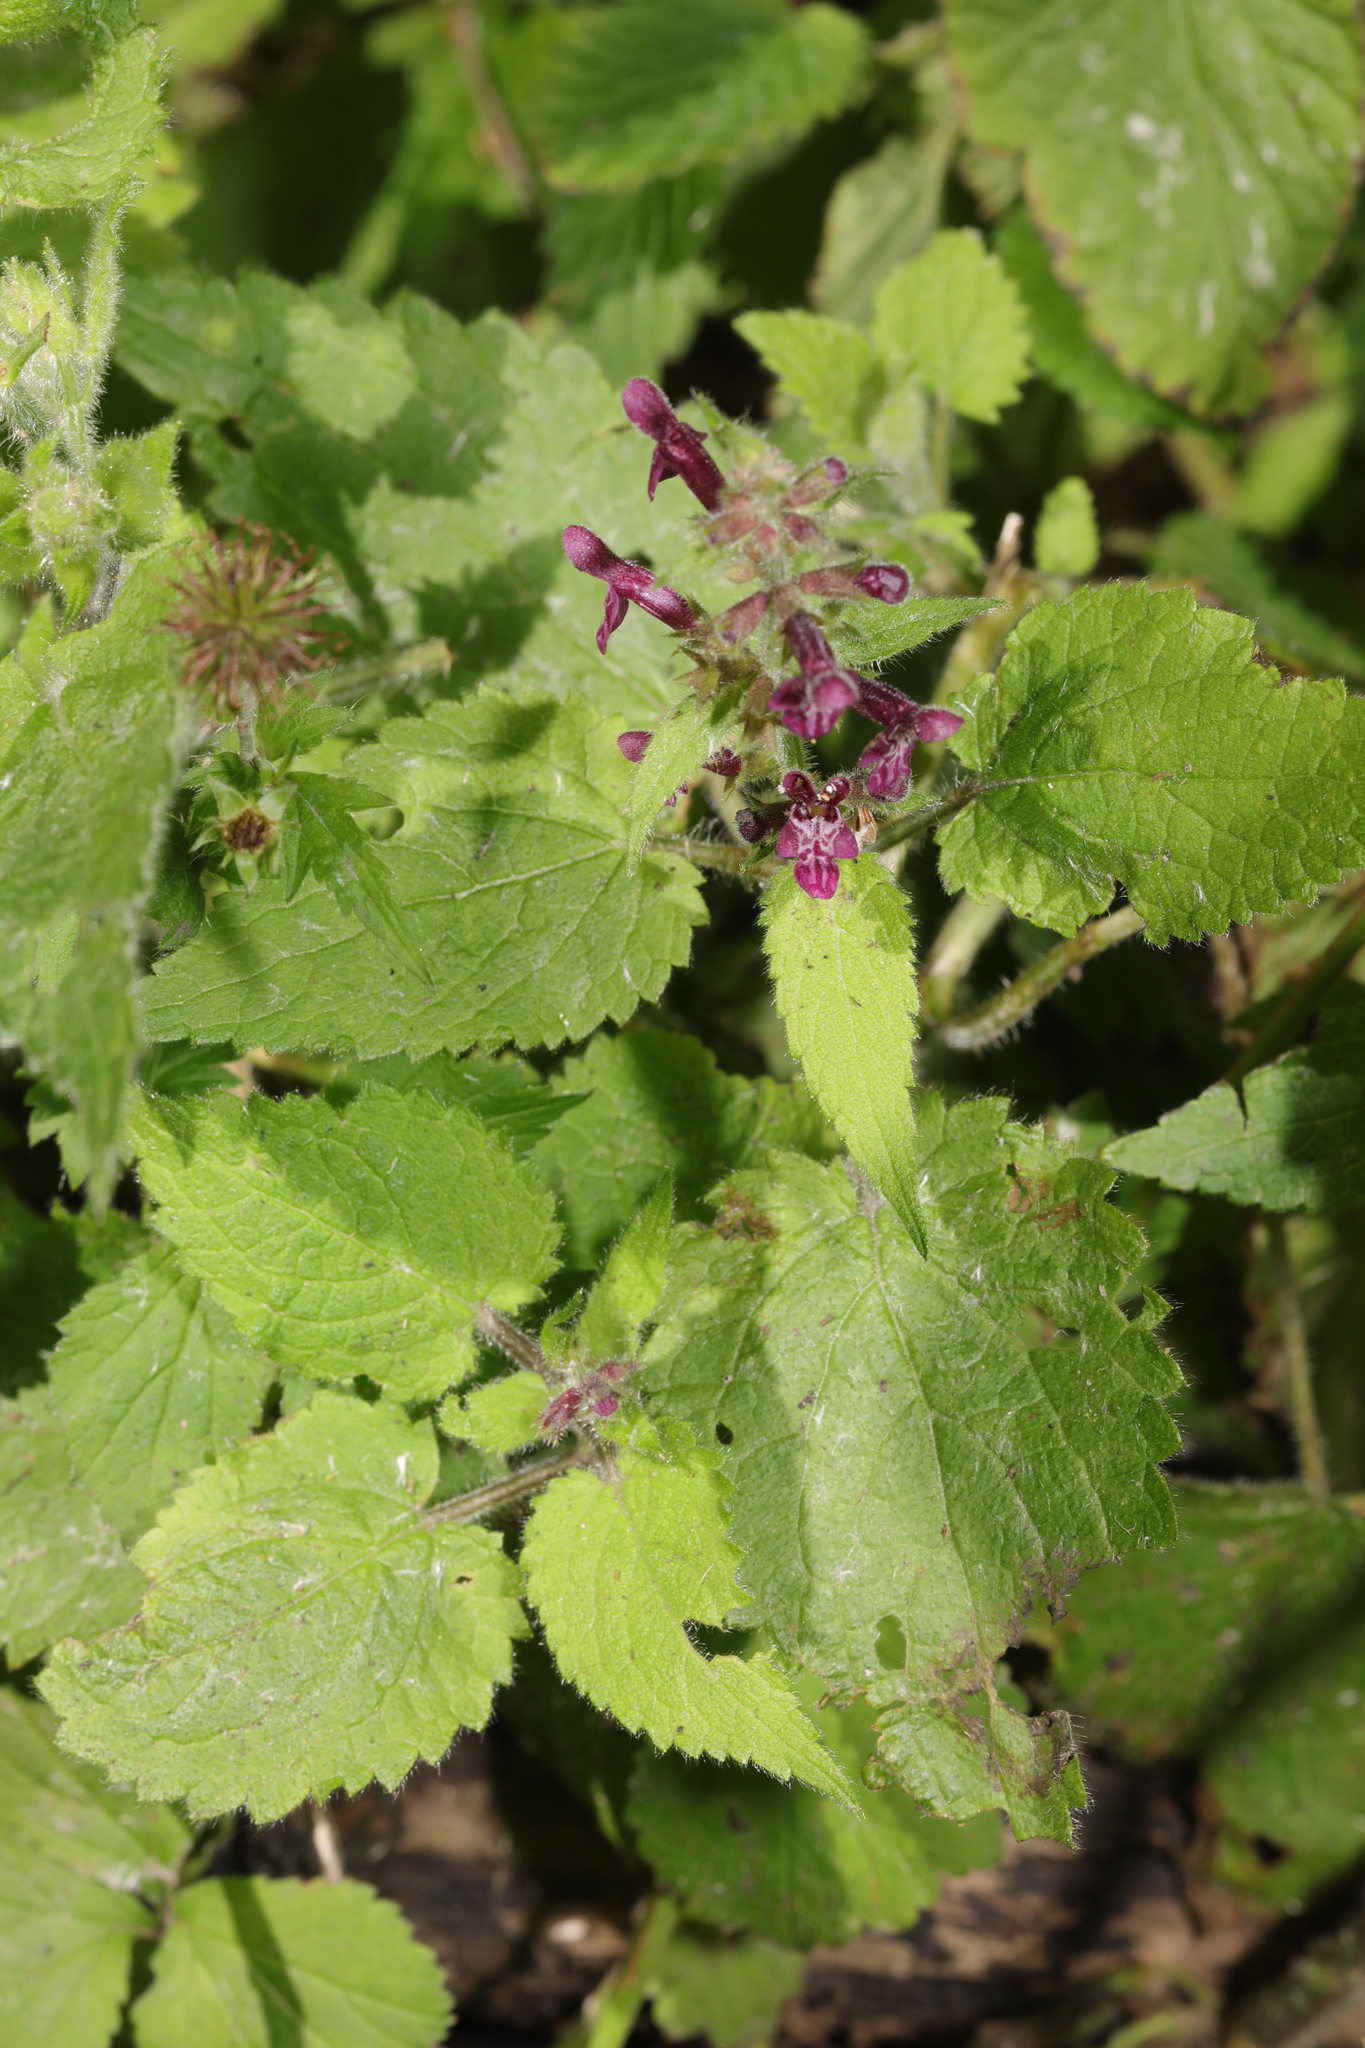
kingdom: Plantae
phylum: Tracheophyta
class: Magnoliopsida
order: Lamiales
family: Lamiaceae
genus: Stachys
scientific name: Stachys sylvatica
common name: Hedge woundwort
